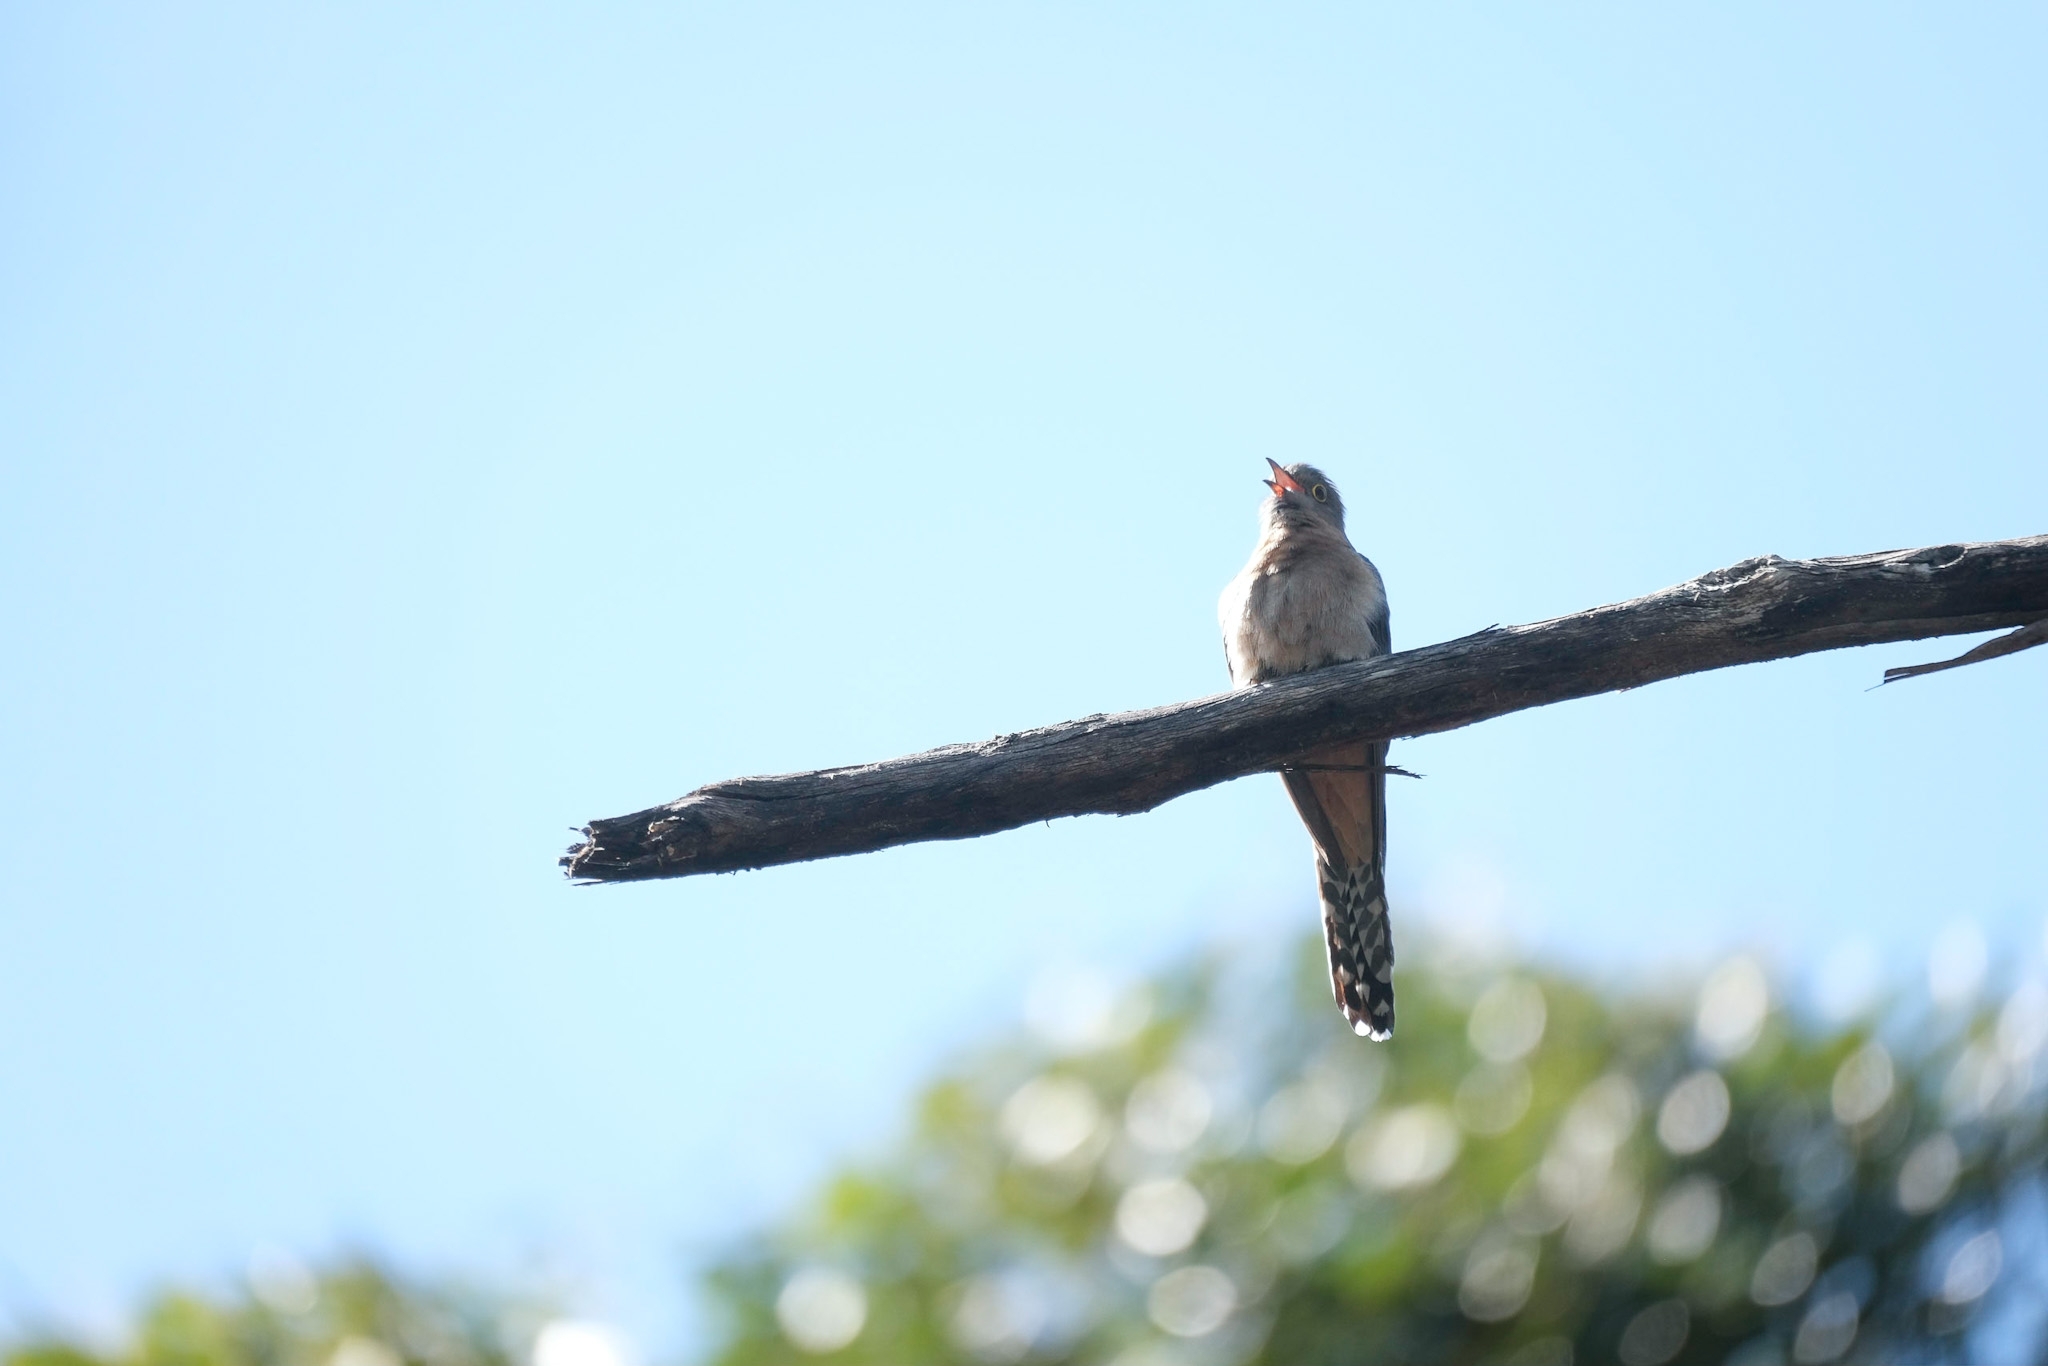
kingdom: Animalia
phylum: Chordata
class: Aves
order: Cuculiformes
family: Cuculidae
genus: Cacomantis
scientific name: Cacomantis flabelliformis
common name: Fan-tailed cuckoo
